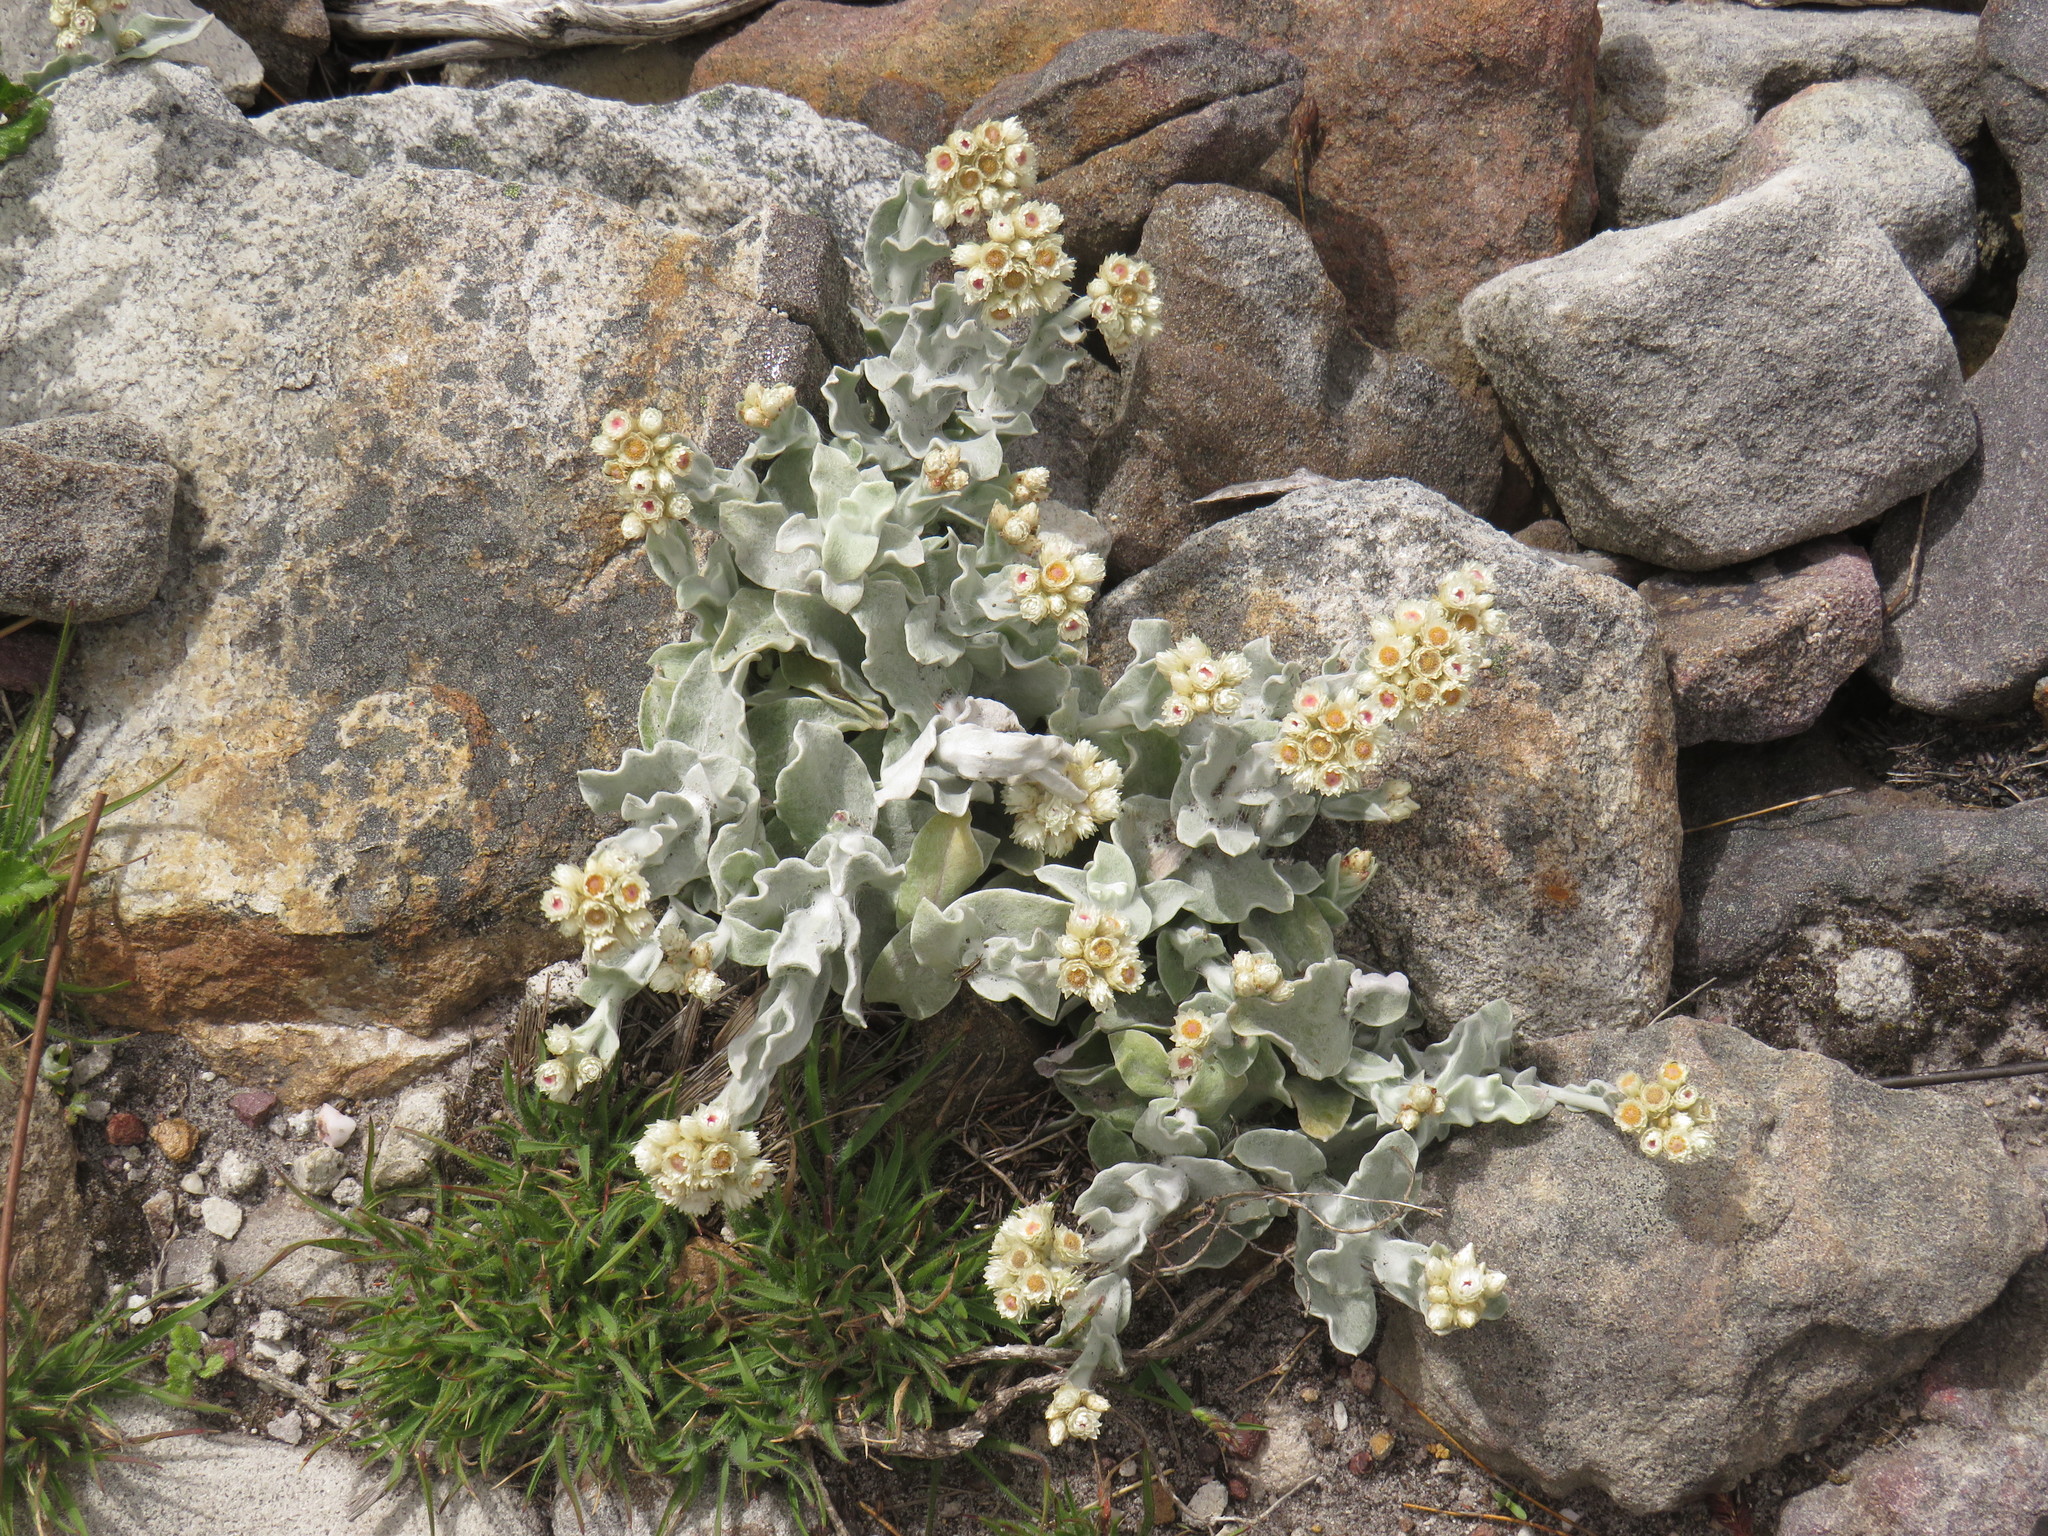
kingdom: Plantae
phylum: Tracheophyta
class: Magnoliopsida
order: Asterales
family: Asteraceae
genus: Helichrysum
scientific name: Helichrysum diffusum
